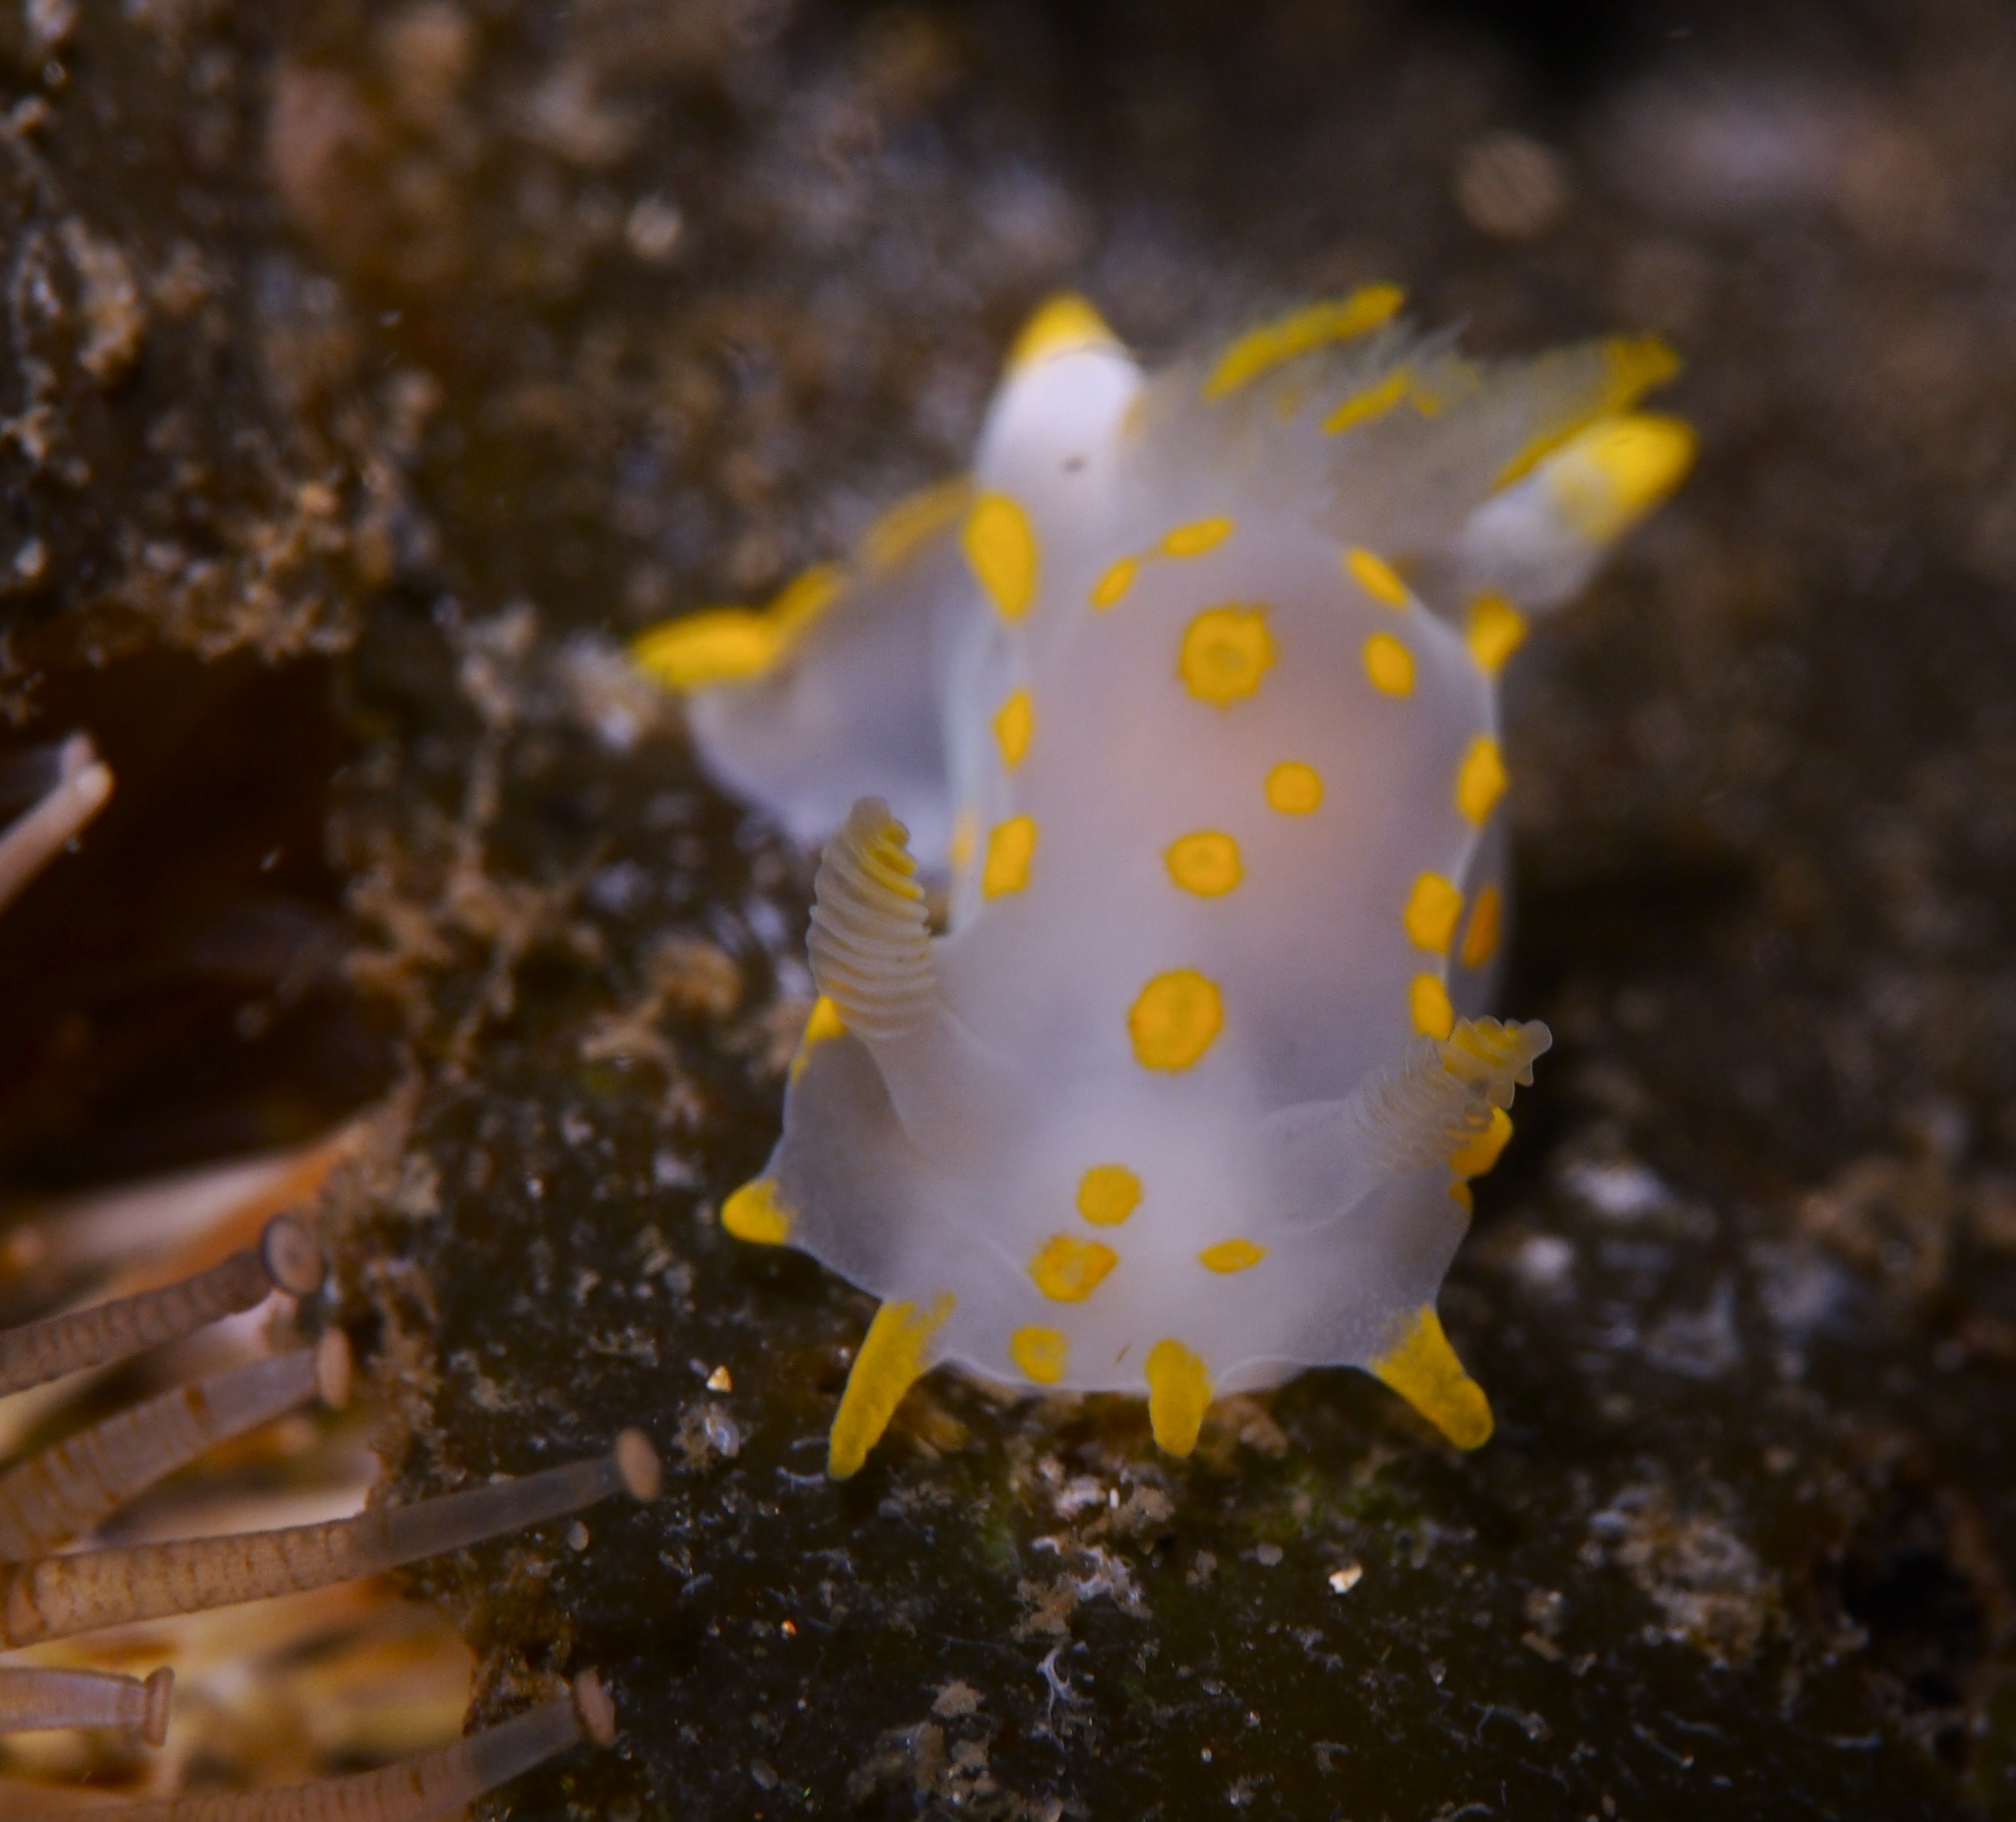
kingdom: Animalia
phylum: Mollusca
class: Gastropoda
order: Nudibranchia
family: Polyceridae
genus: Polycera
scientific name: Polycera quadrilineata
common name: Four-striped polycera
